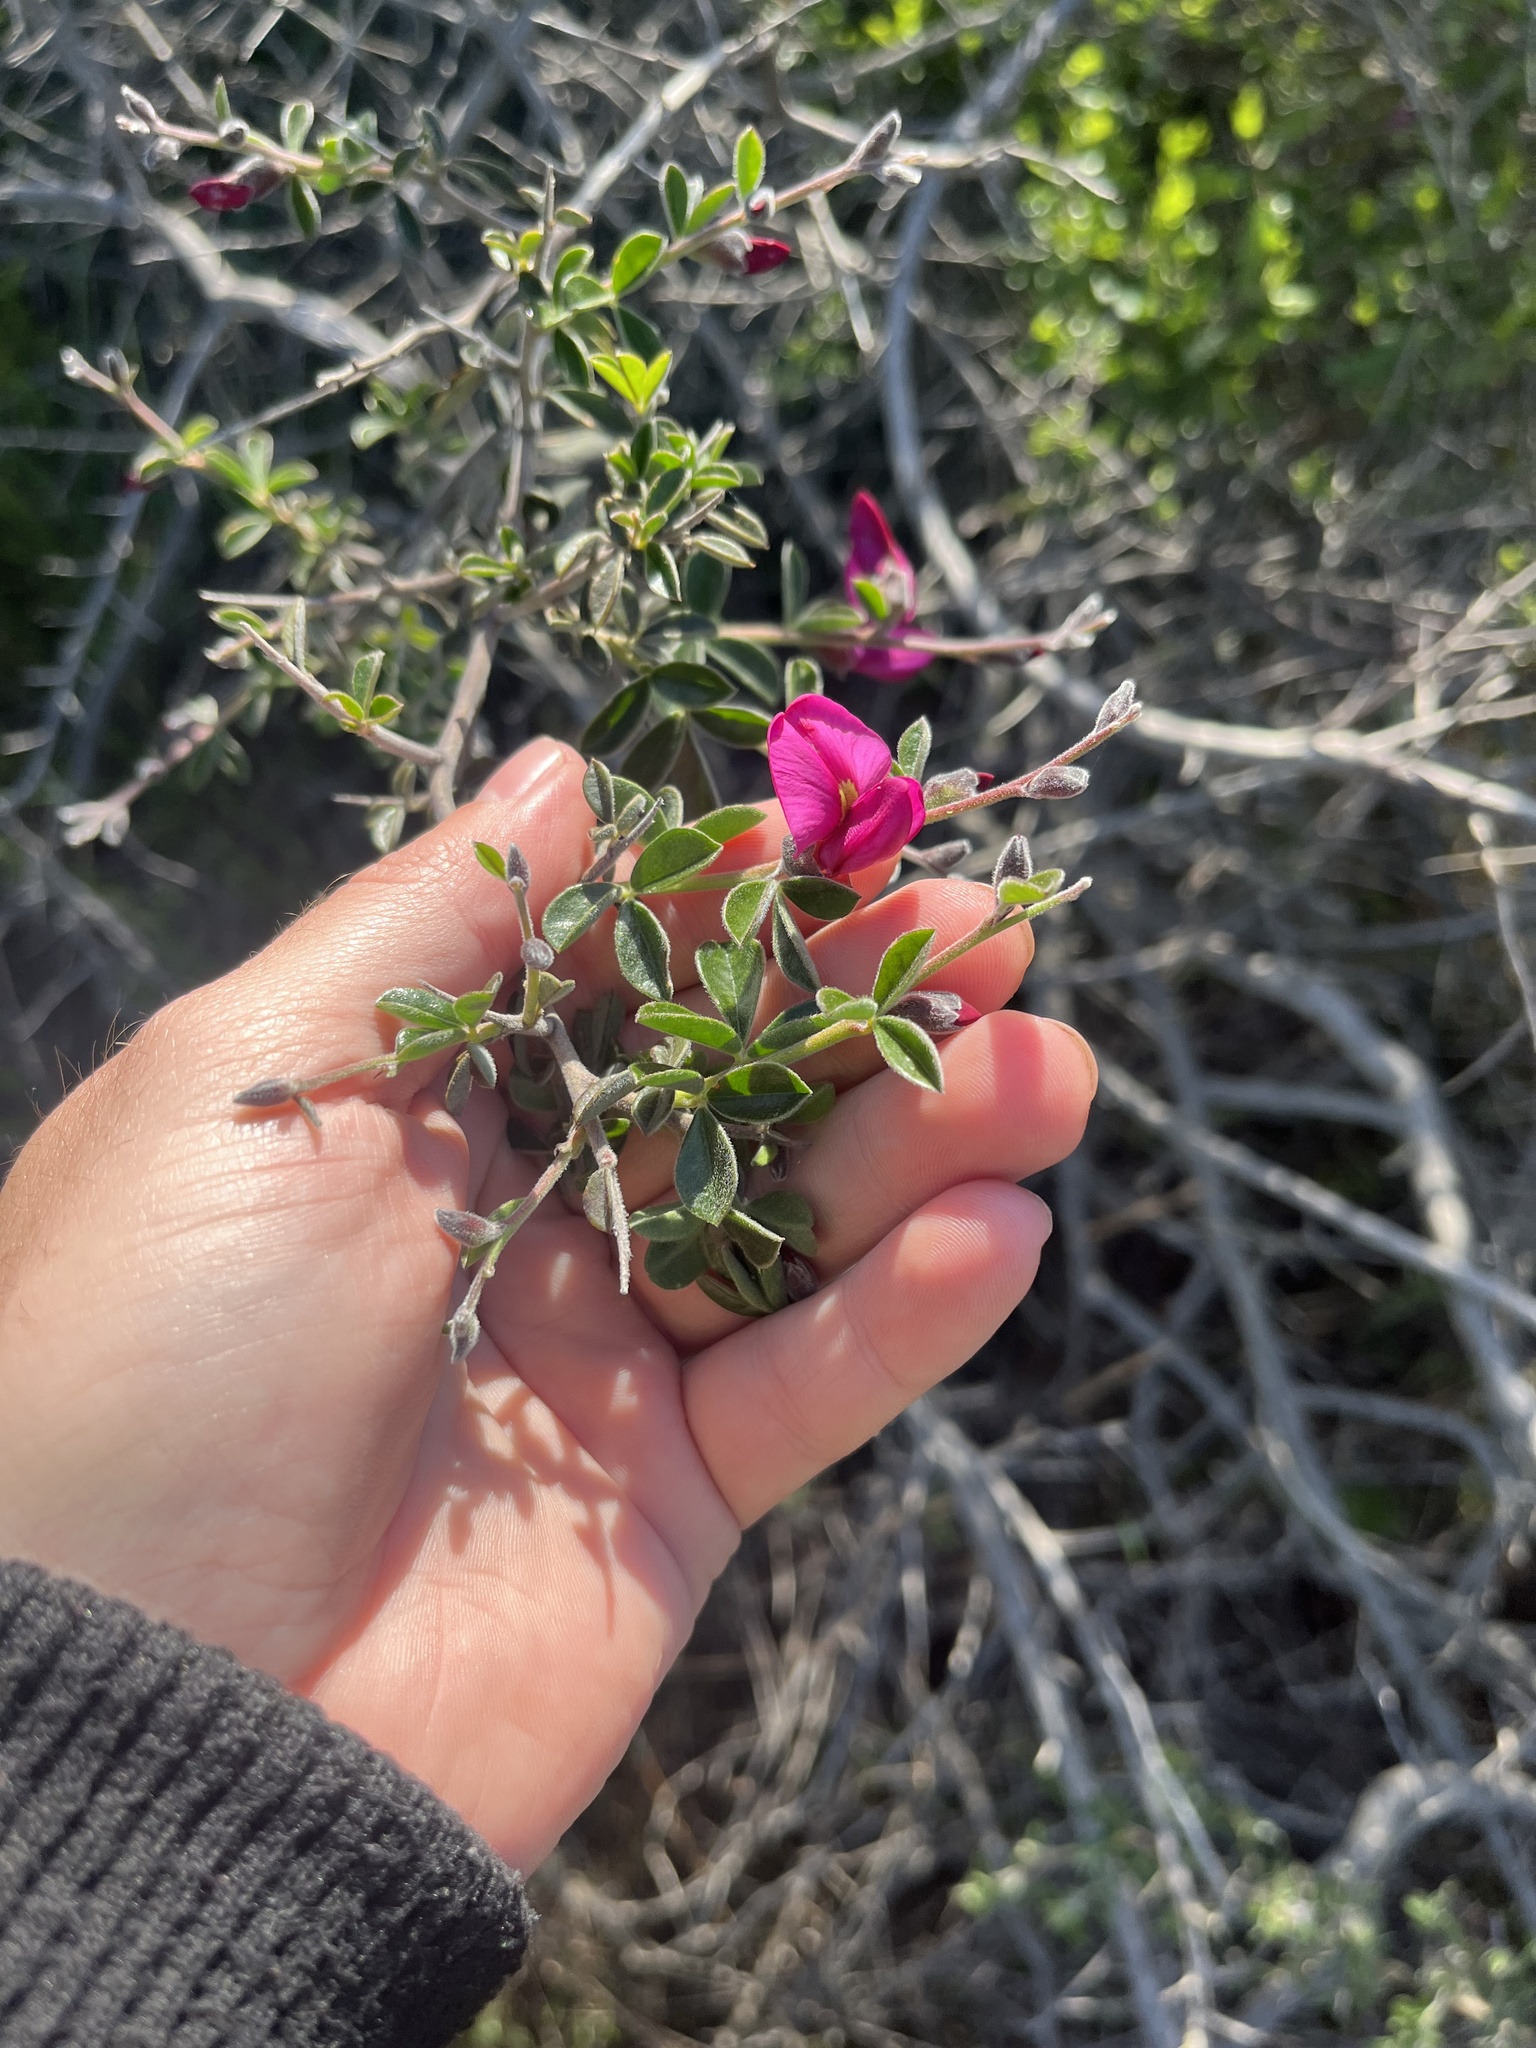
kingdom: Plantae
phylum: Tracheophyta
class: Magnoliopsida
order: Fabales
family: Fabaceae
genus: Pickeringia
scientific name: Pickeringia montana
